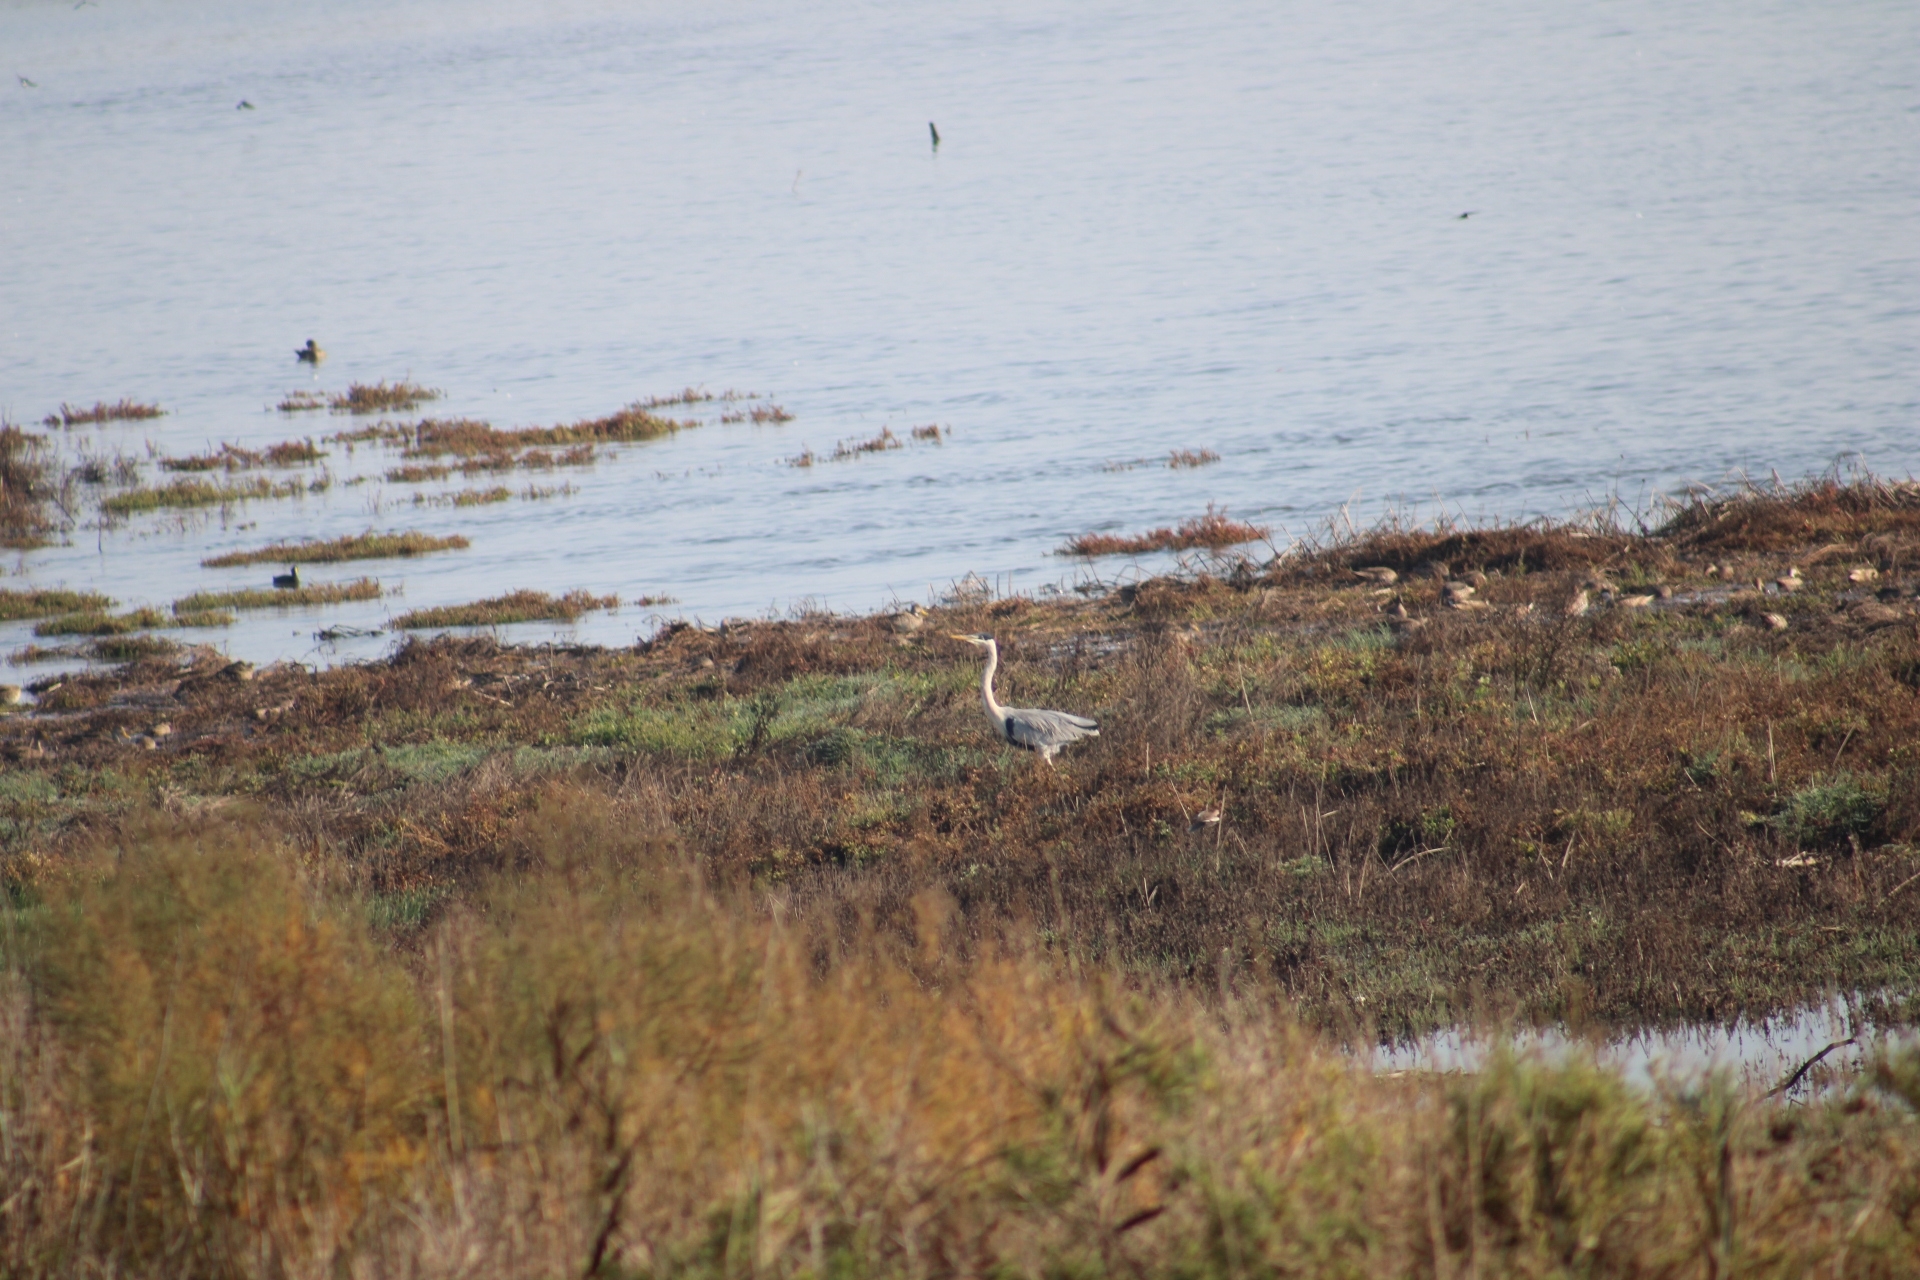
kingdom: Animalia
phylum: Chordata
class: Aves
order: Pelecaniformes
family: Ardeidae
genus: Ardea
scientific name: Ardea cocoi
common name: Cocoi heron
